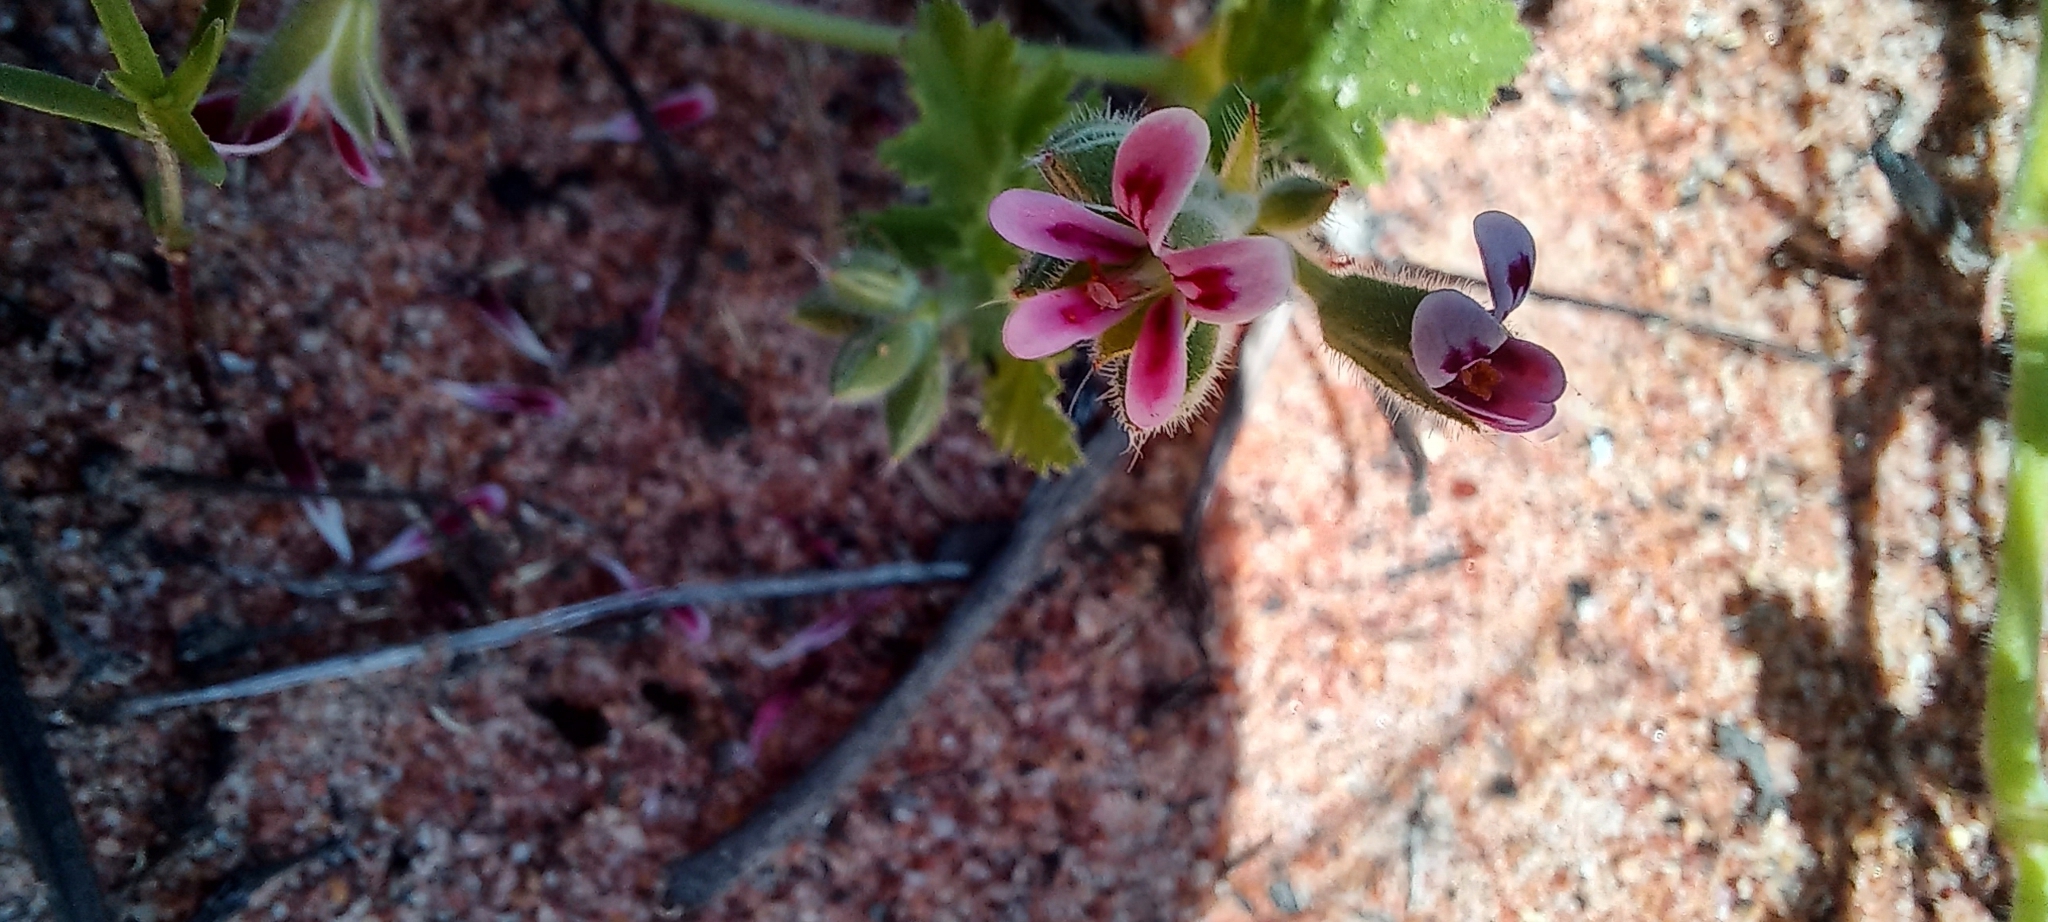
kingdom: Plantae
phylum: Tracheophyta
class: Magnoliopsida
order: Geraniales
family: Geraniaceae
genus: Pelargonium
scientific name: Pelargonium althaeoides
